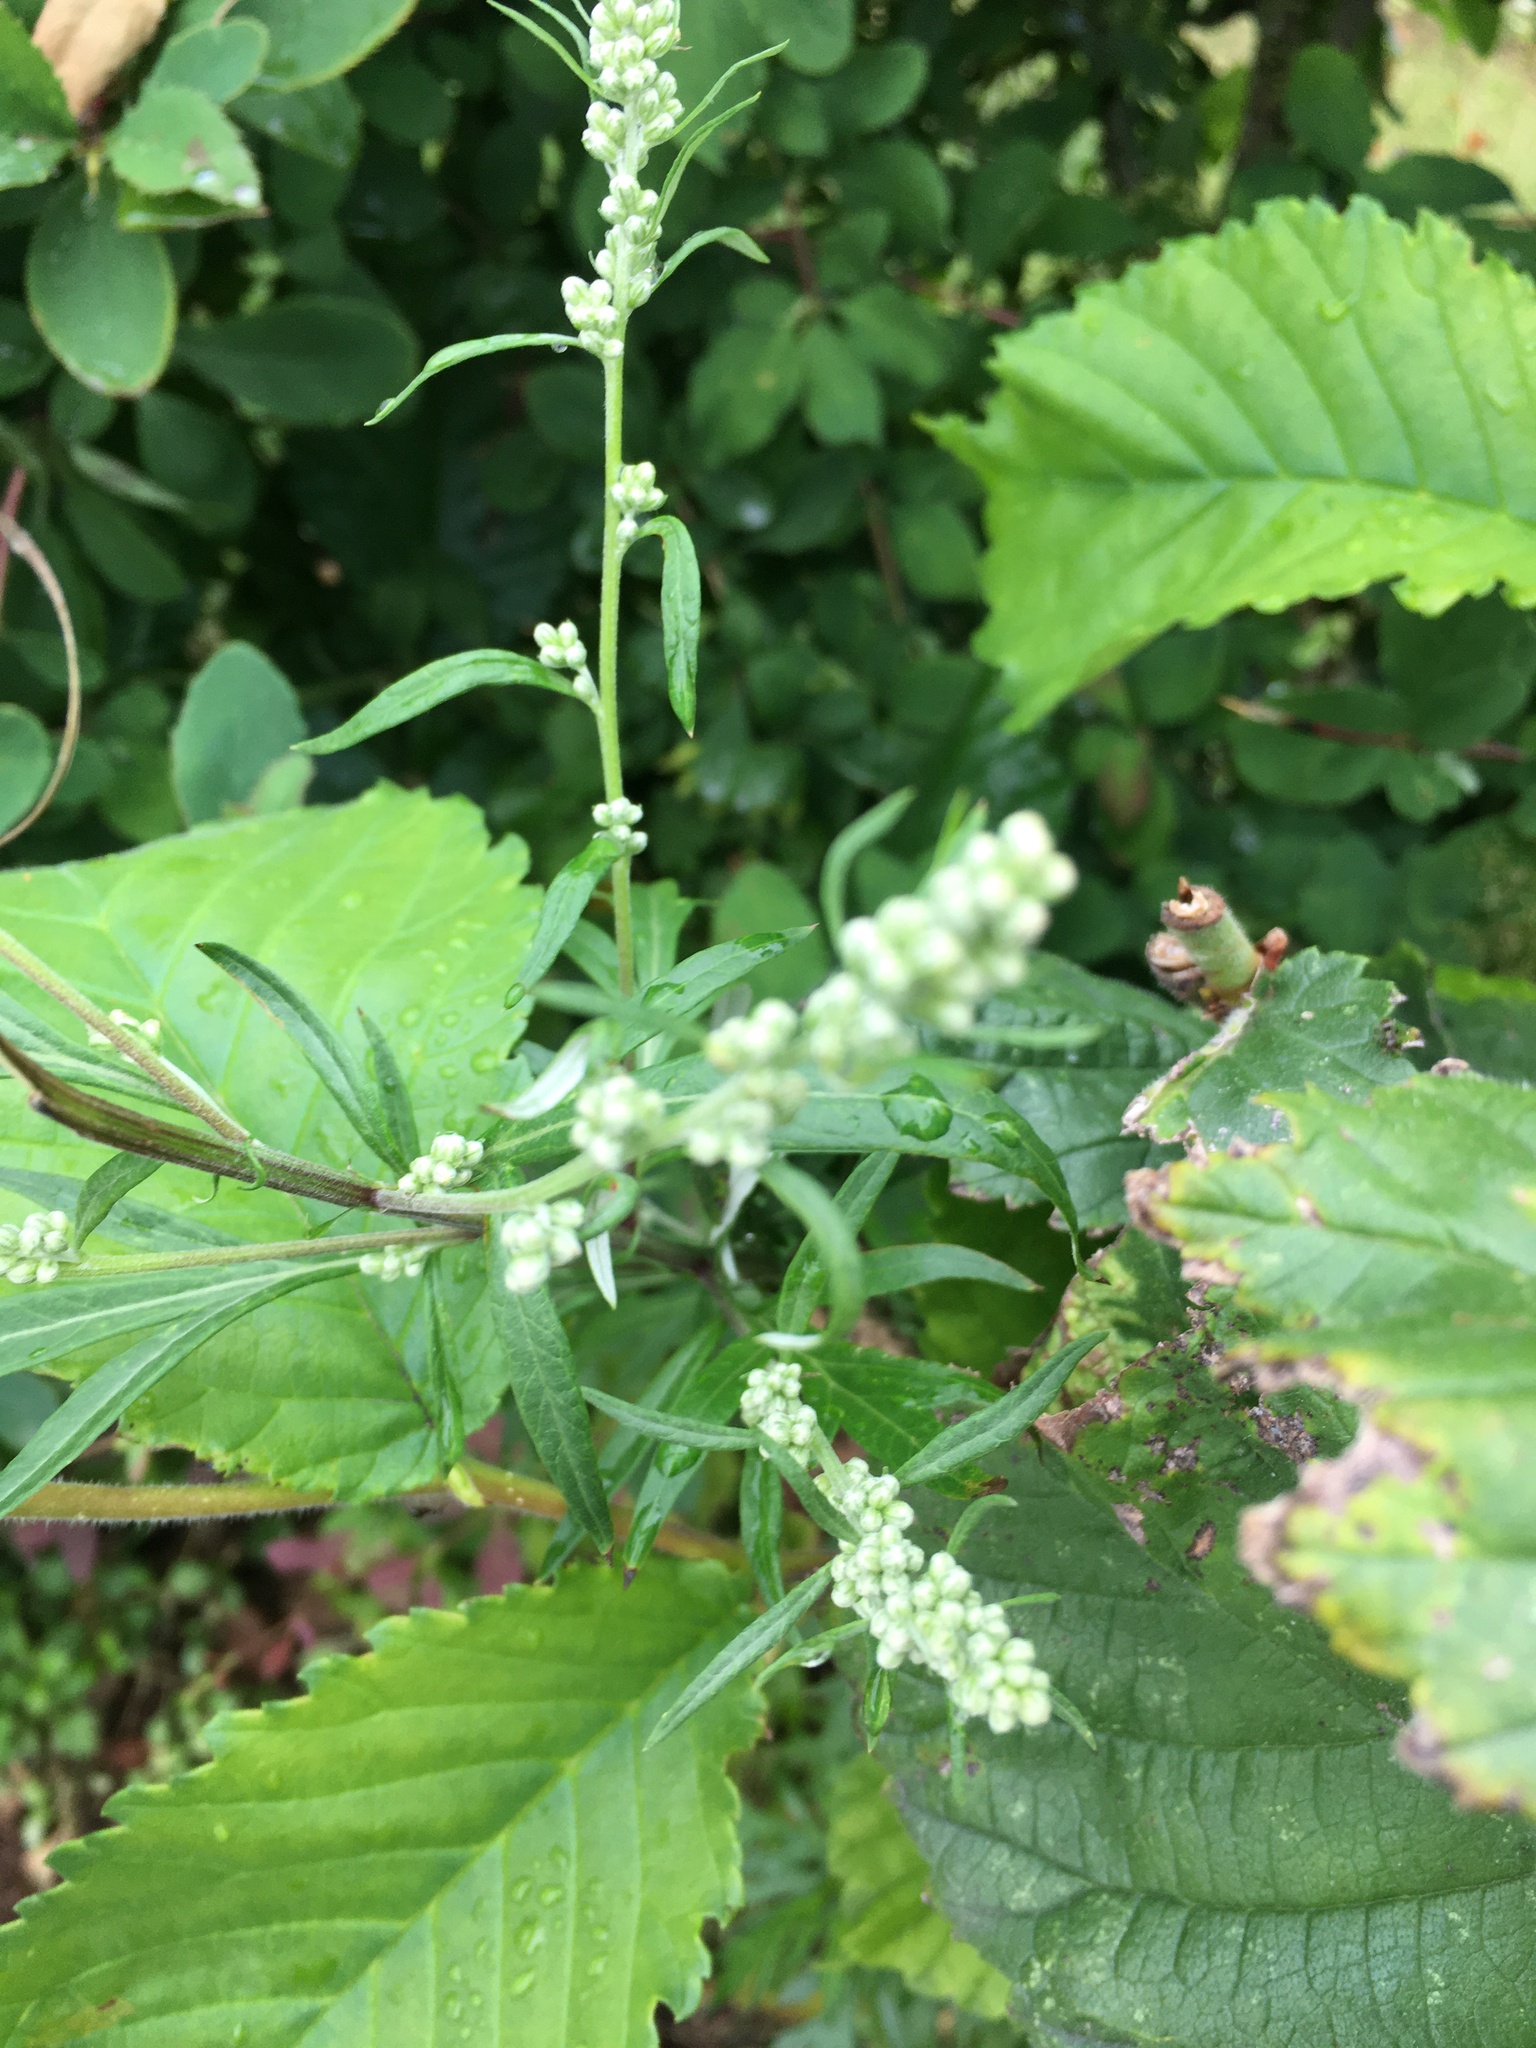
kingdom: Plantae
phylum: Tracheophyta
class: Magnoliopsida
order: Asterales
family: Asteraceae
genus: Artemisia
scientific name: Artemisia vulgaris
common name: Mugwort
